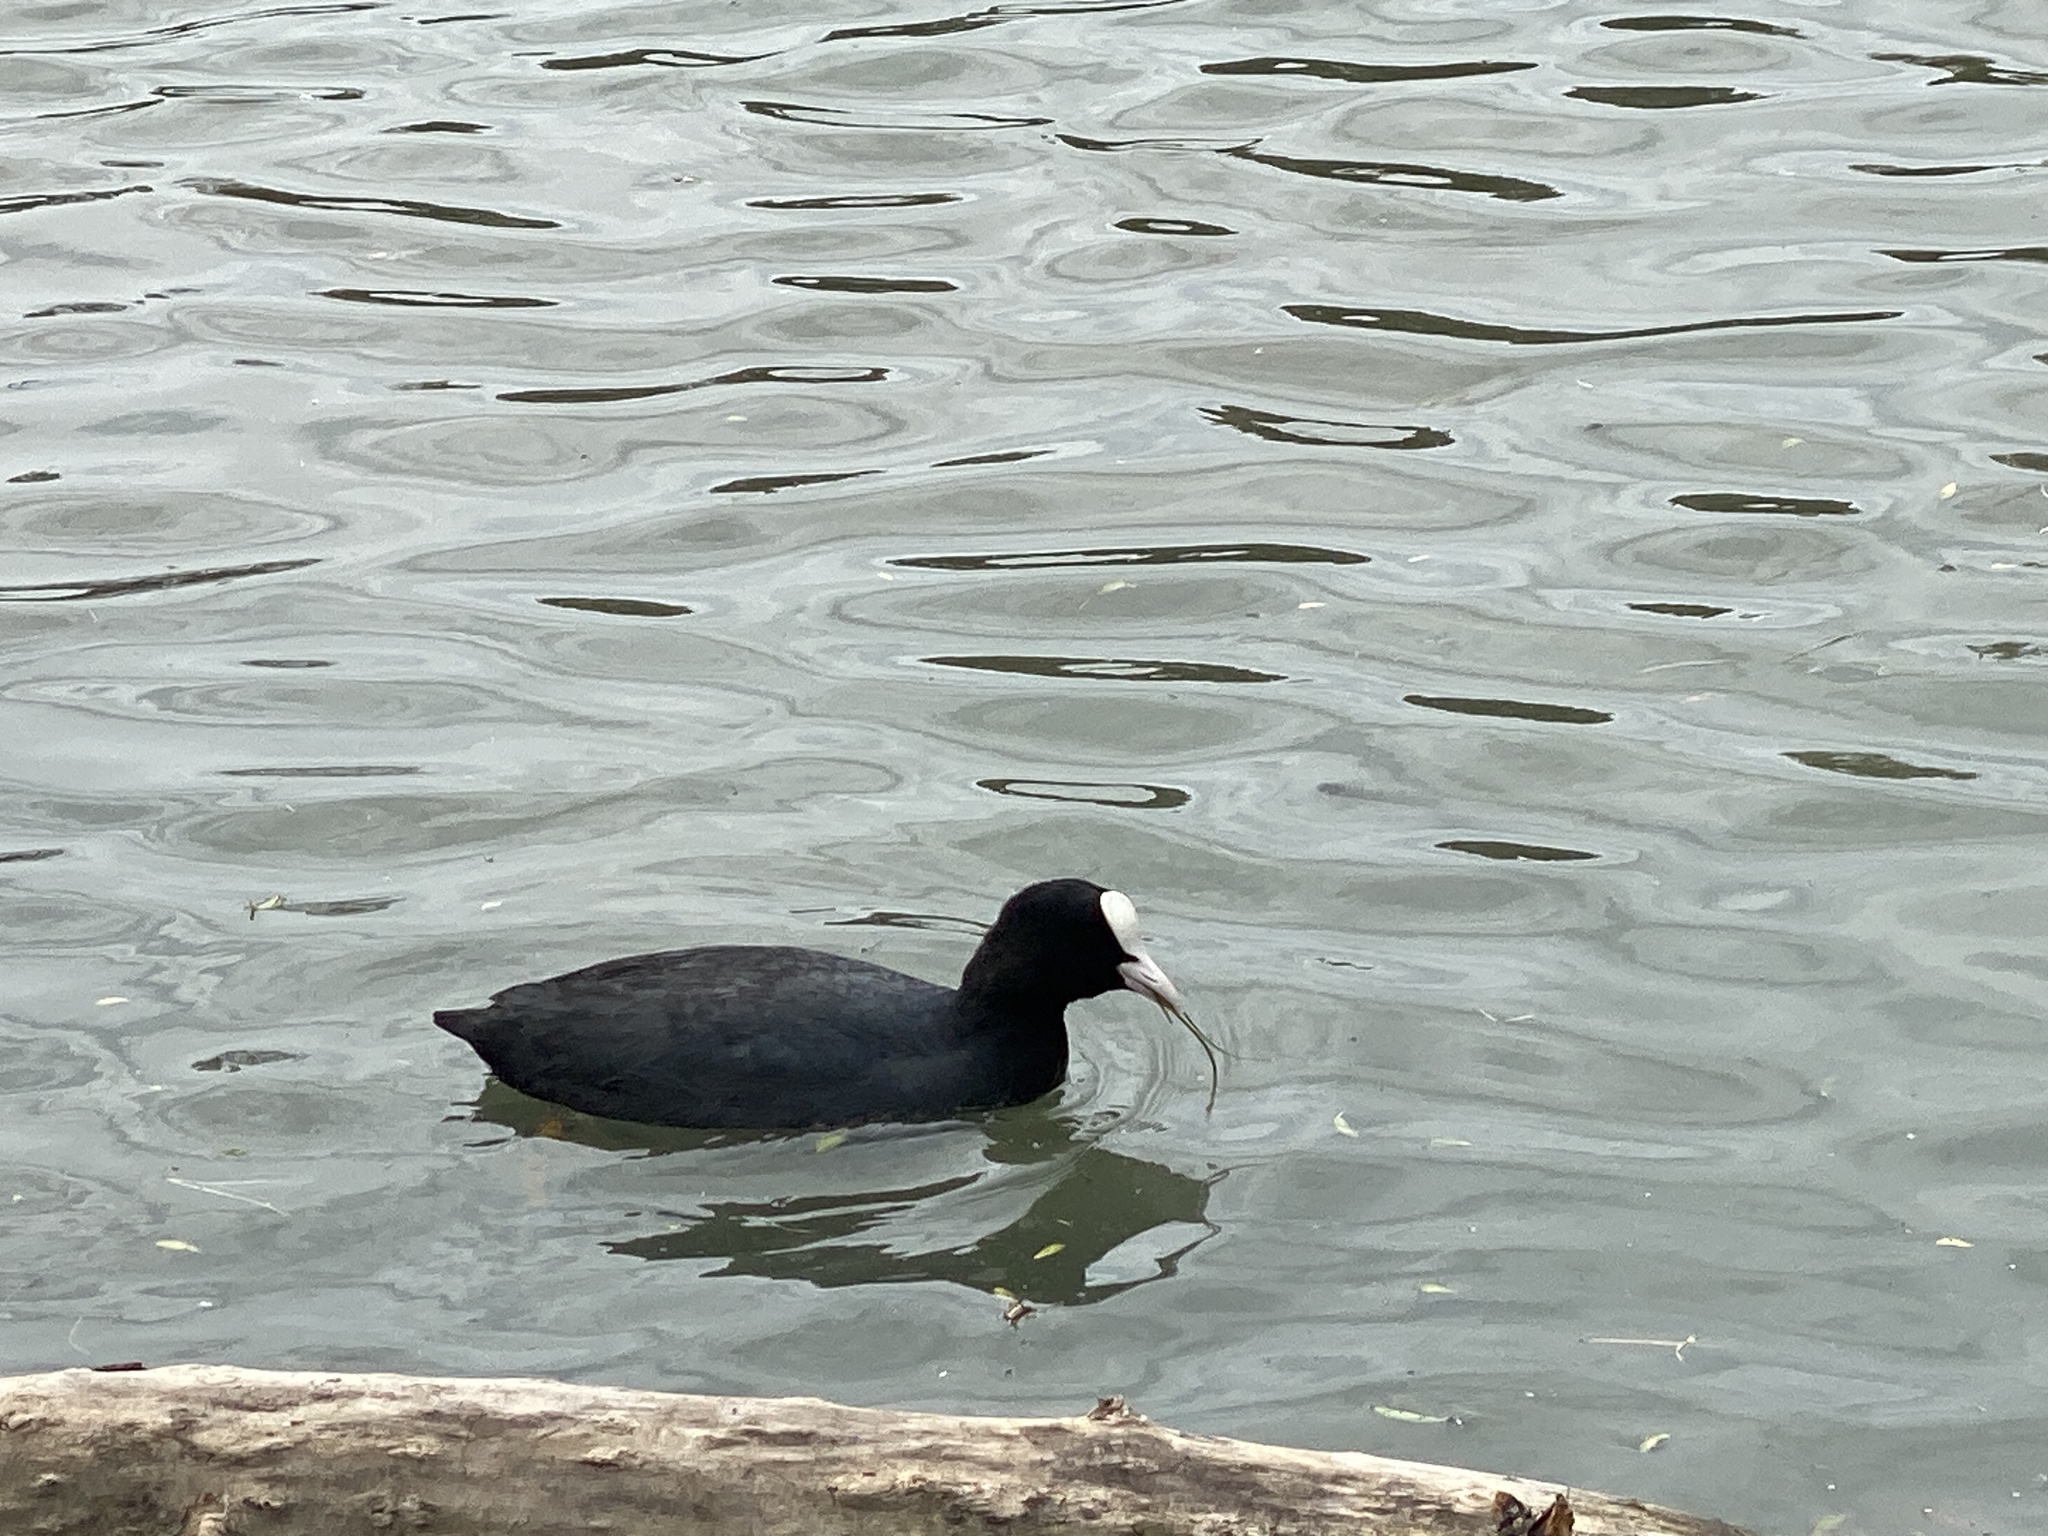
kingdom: Animalia
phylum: Chordata
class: Aves
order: Gruiformes
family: Rallidae
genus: Fulica
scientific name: Fulica atra
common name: Eurasian coot
